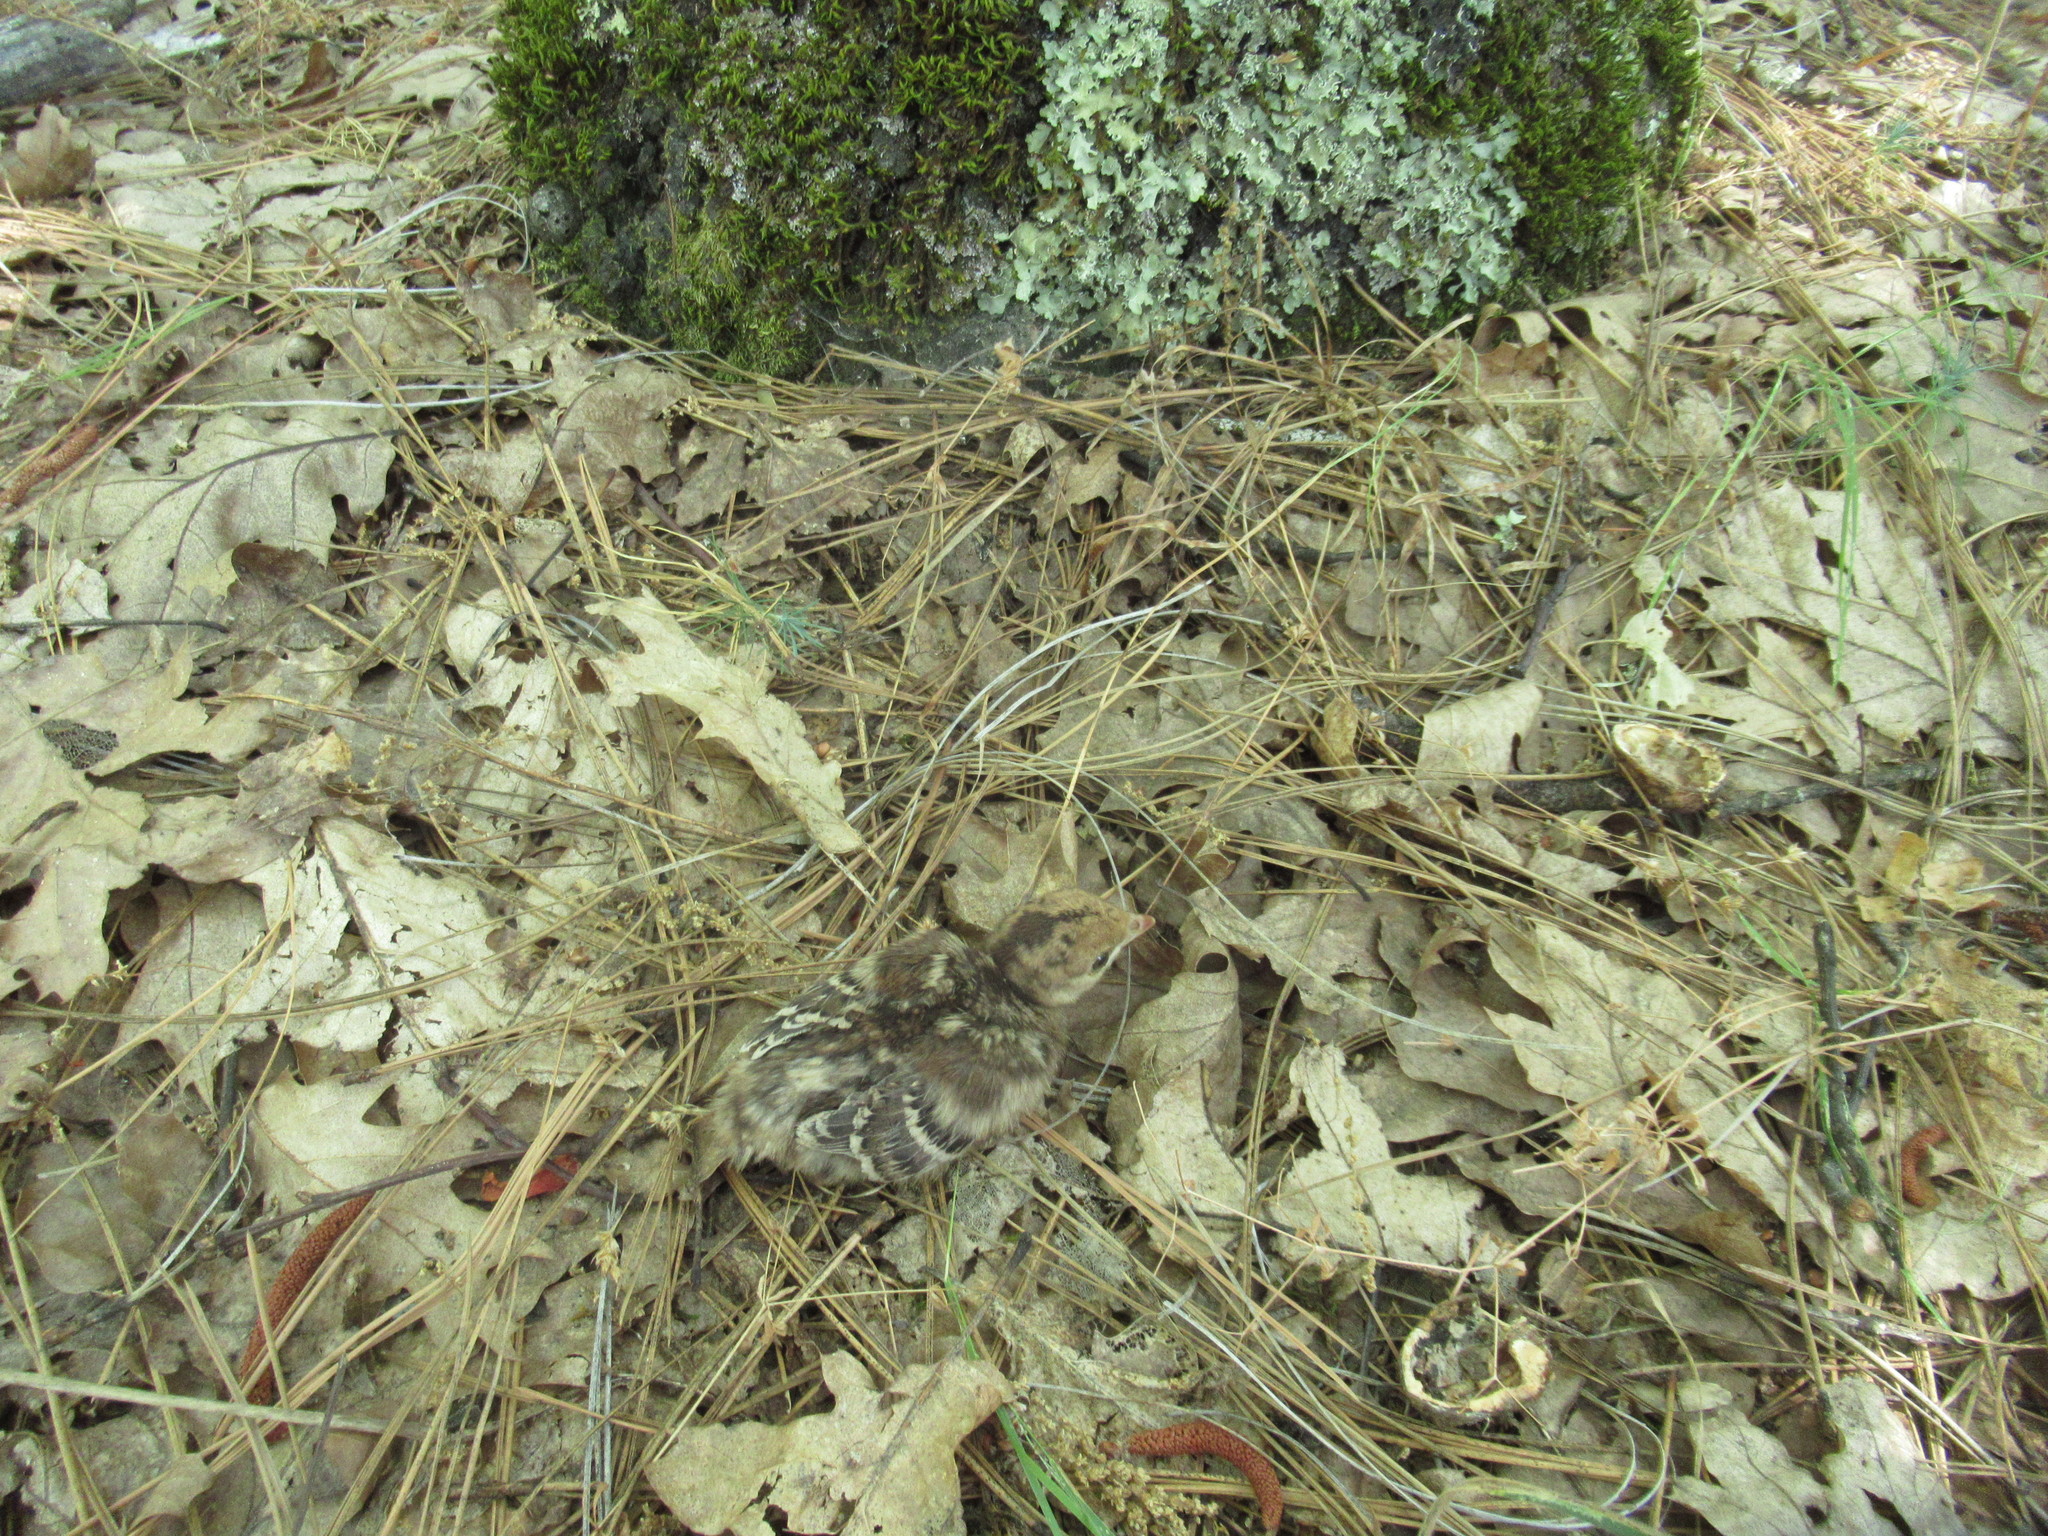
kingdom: Animalia
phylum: Chordata
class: Aves
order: Galliformes
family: Phasianidae
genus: Meleagris
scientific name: Meleagris gallopavo
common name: Wild turkey
